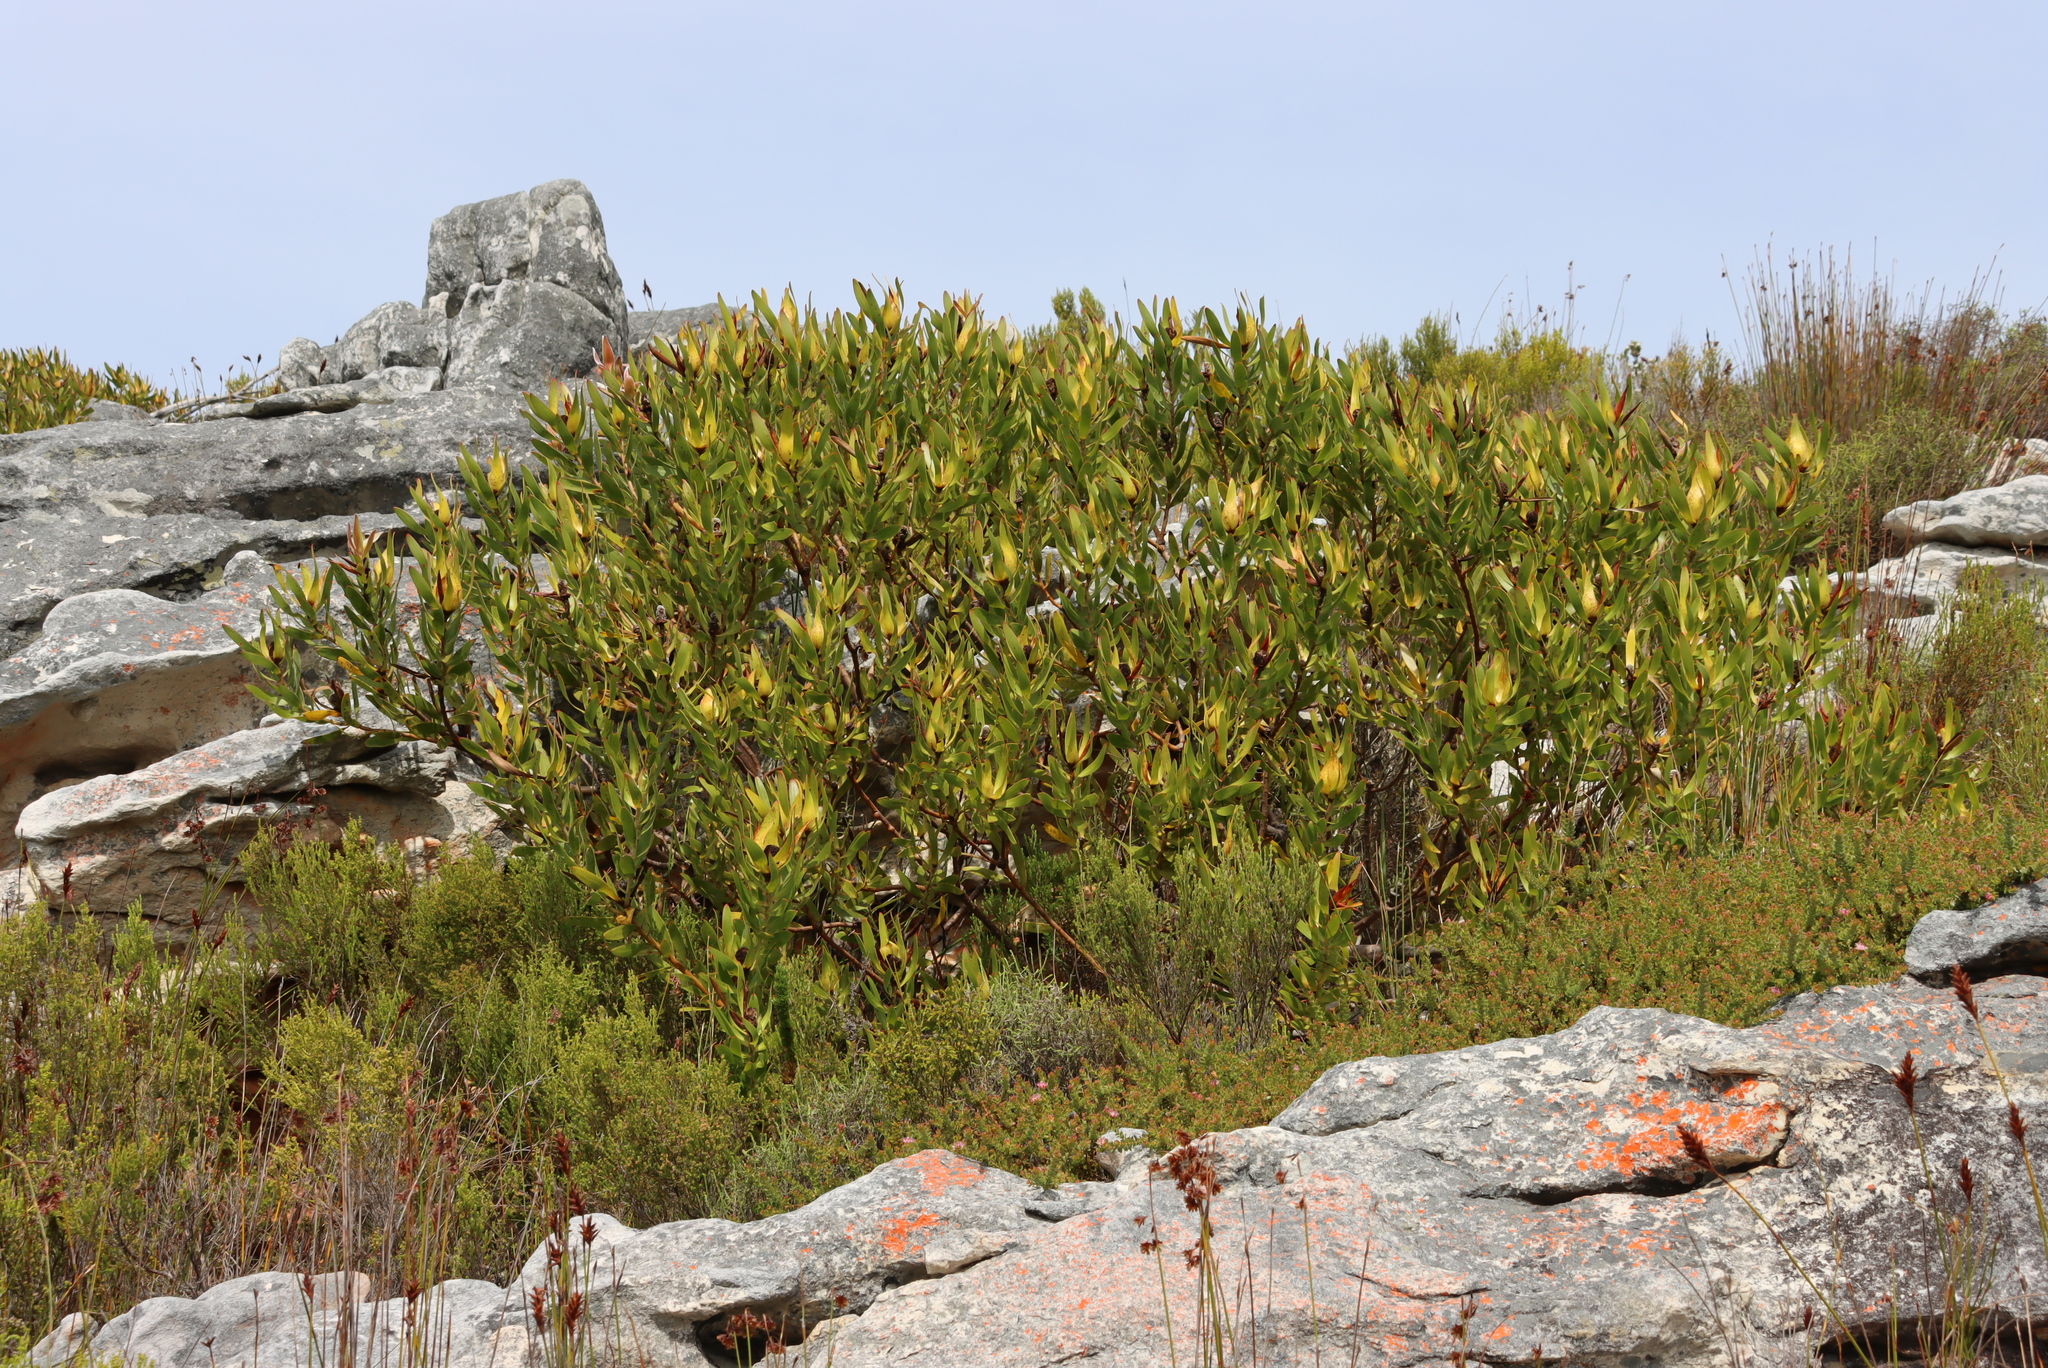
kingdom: Plantae
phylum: Tracheophyta
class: Magnoliopsida
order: Proteales
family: Proteaceae
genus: Leucadendron
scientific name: Leucadendron laureolum
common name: Golden sunshinebush
